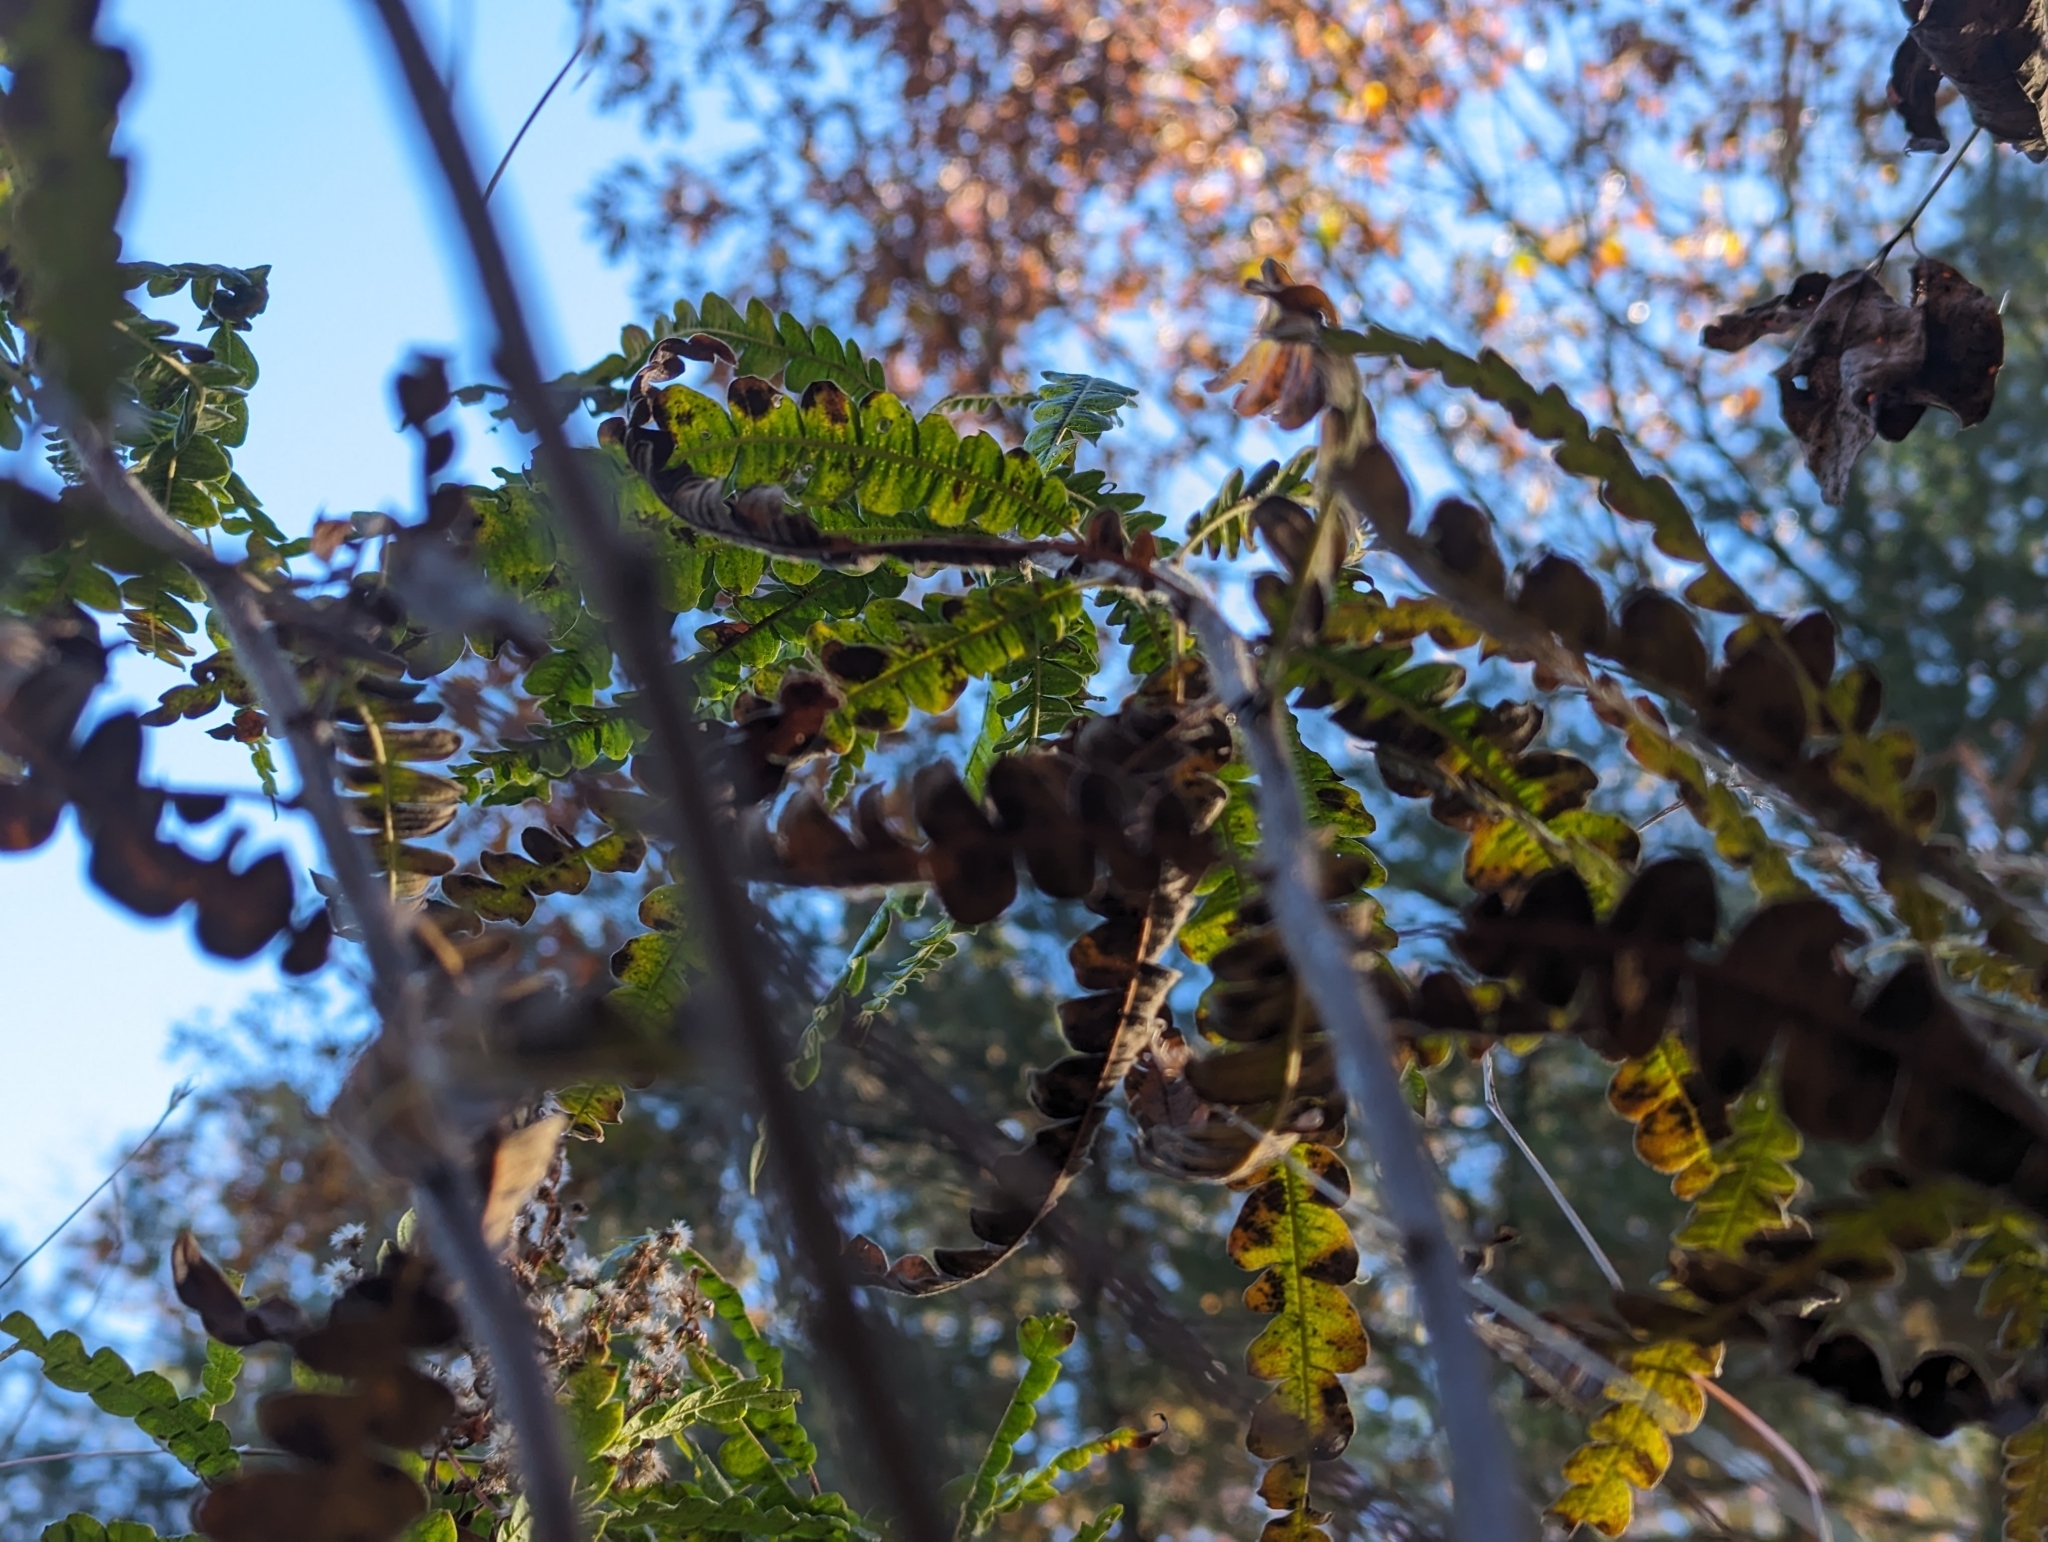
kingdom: Plantae
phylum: Tracheophyta
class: Magnoliopsida
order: Fagales
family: Myricaceae
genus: Comptonia
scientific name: Comptonia peregrina
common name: Sweet-fern
